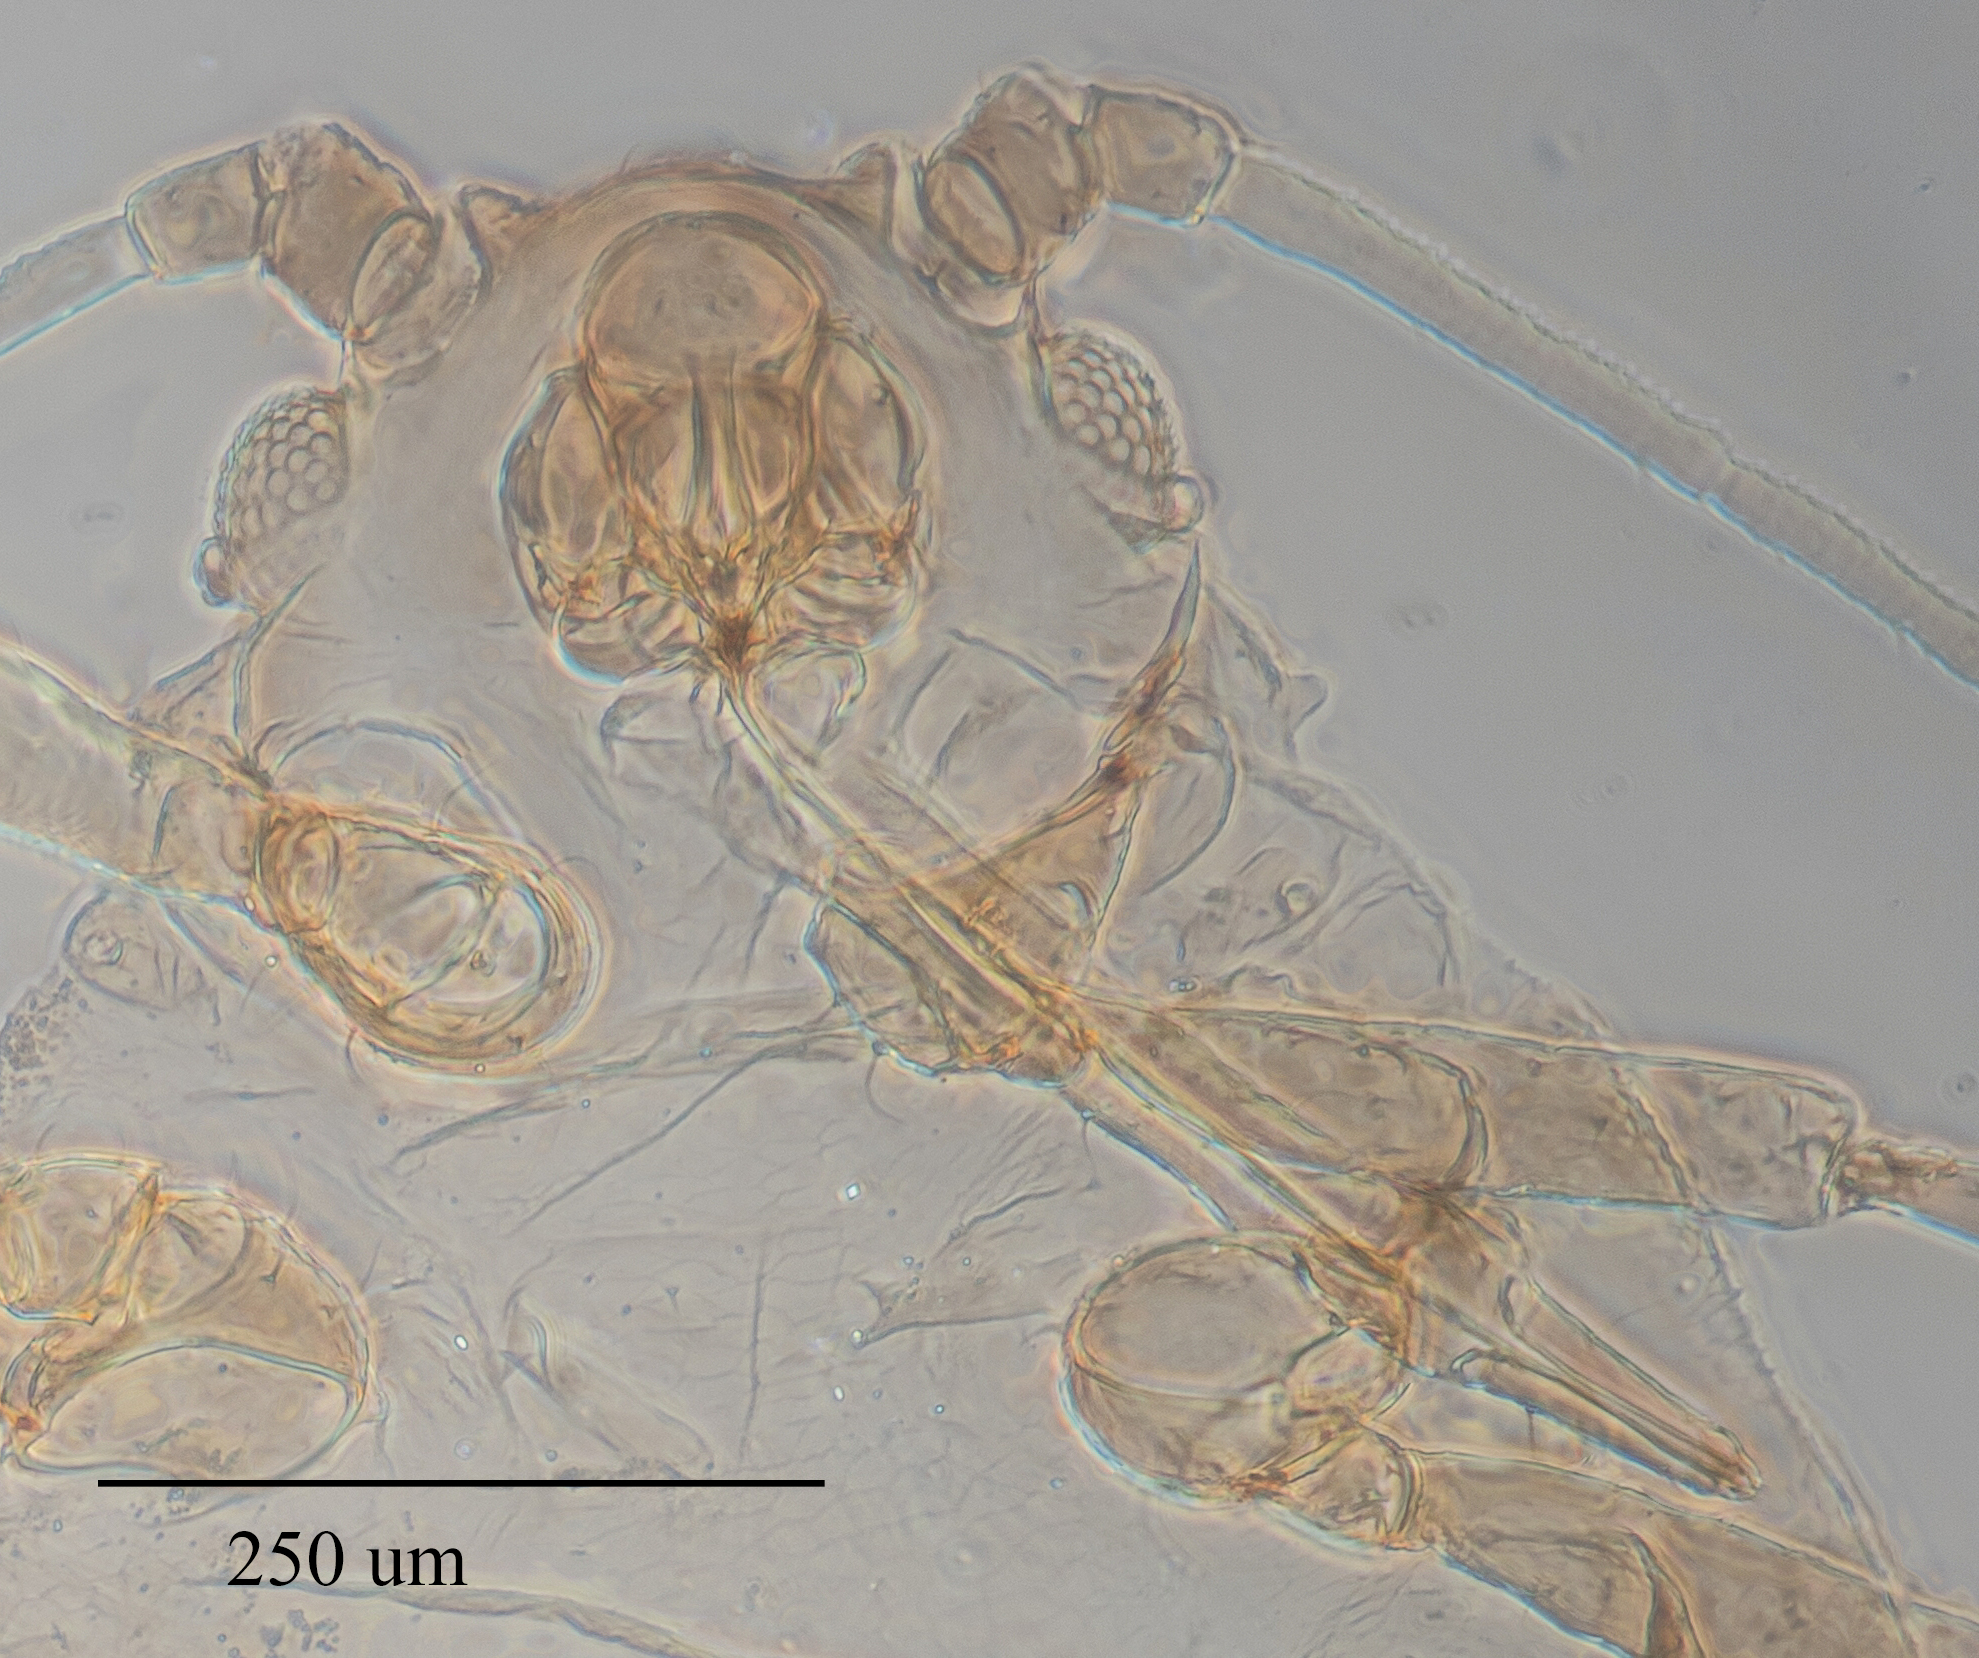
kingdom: Animalia
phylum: Arthropoda
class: Insecta
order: Hemiptera
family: Aphididae
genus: Aphis
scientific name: Aphis gossypii
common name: Melon aphid
